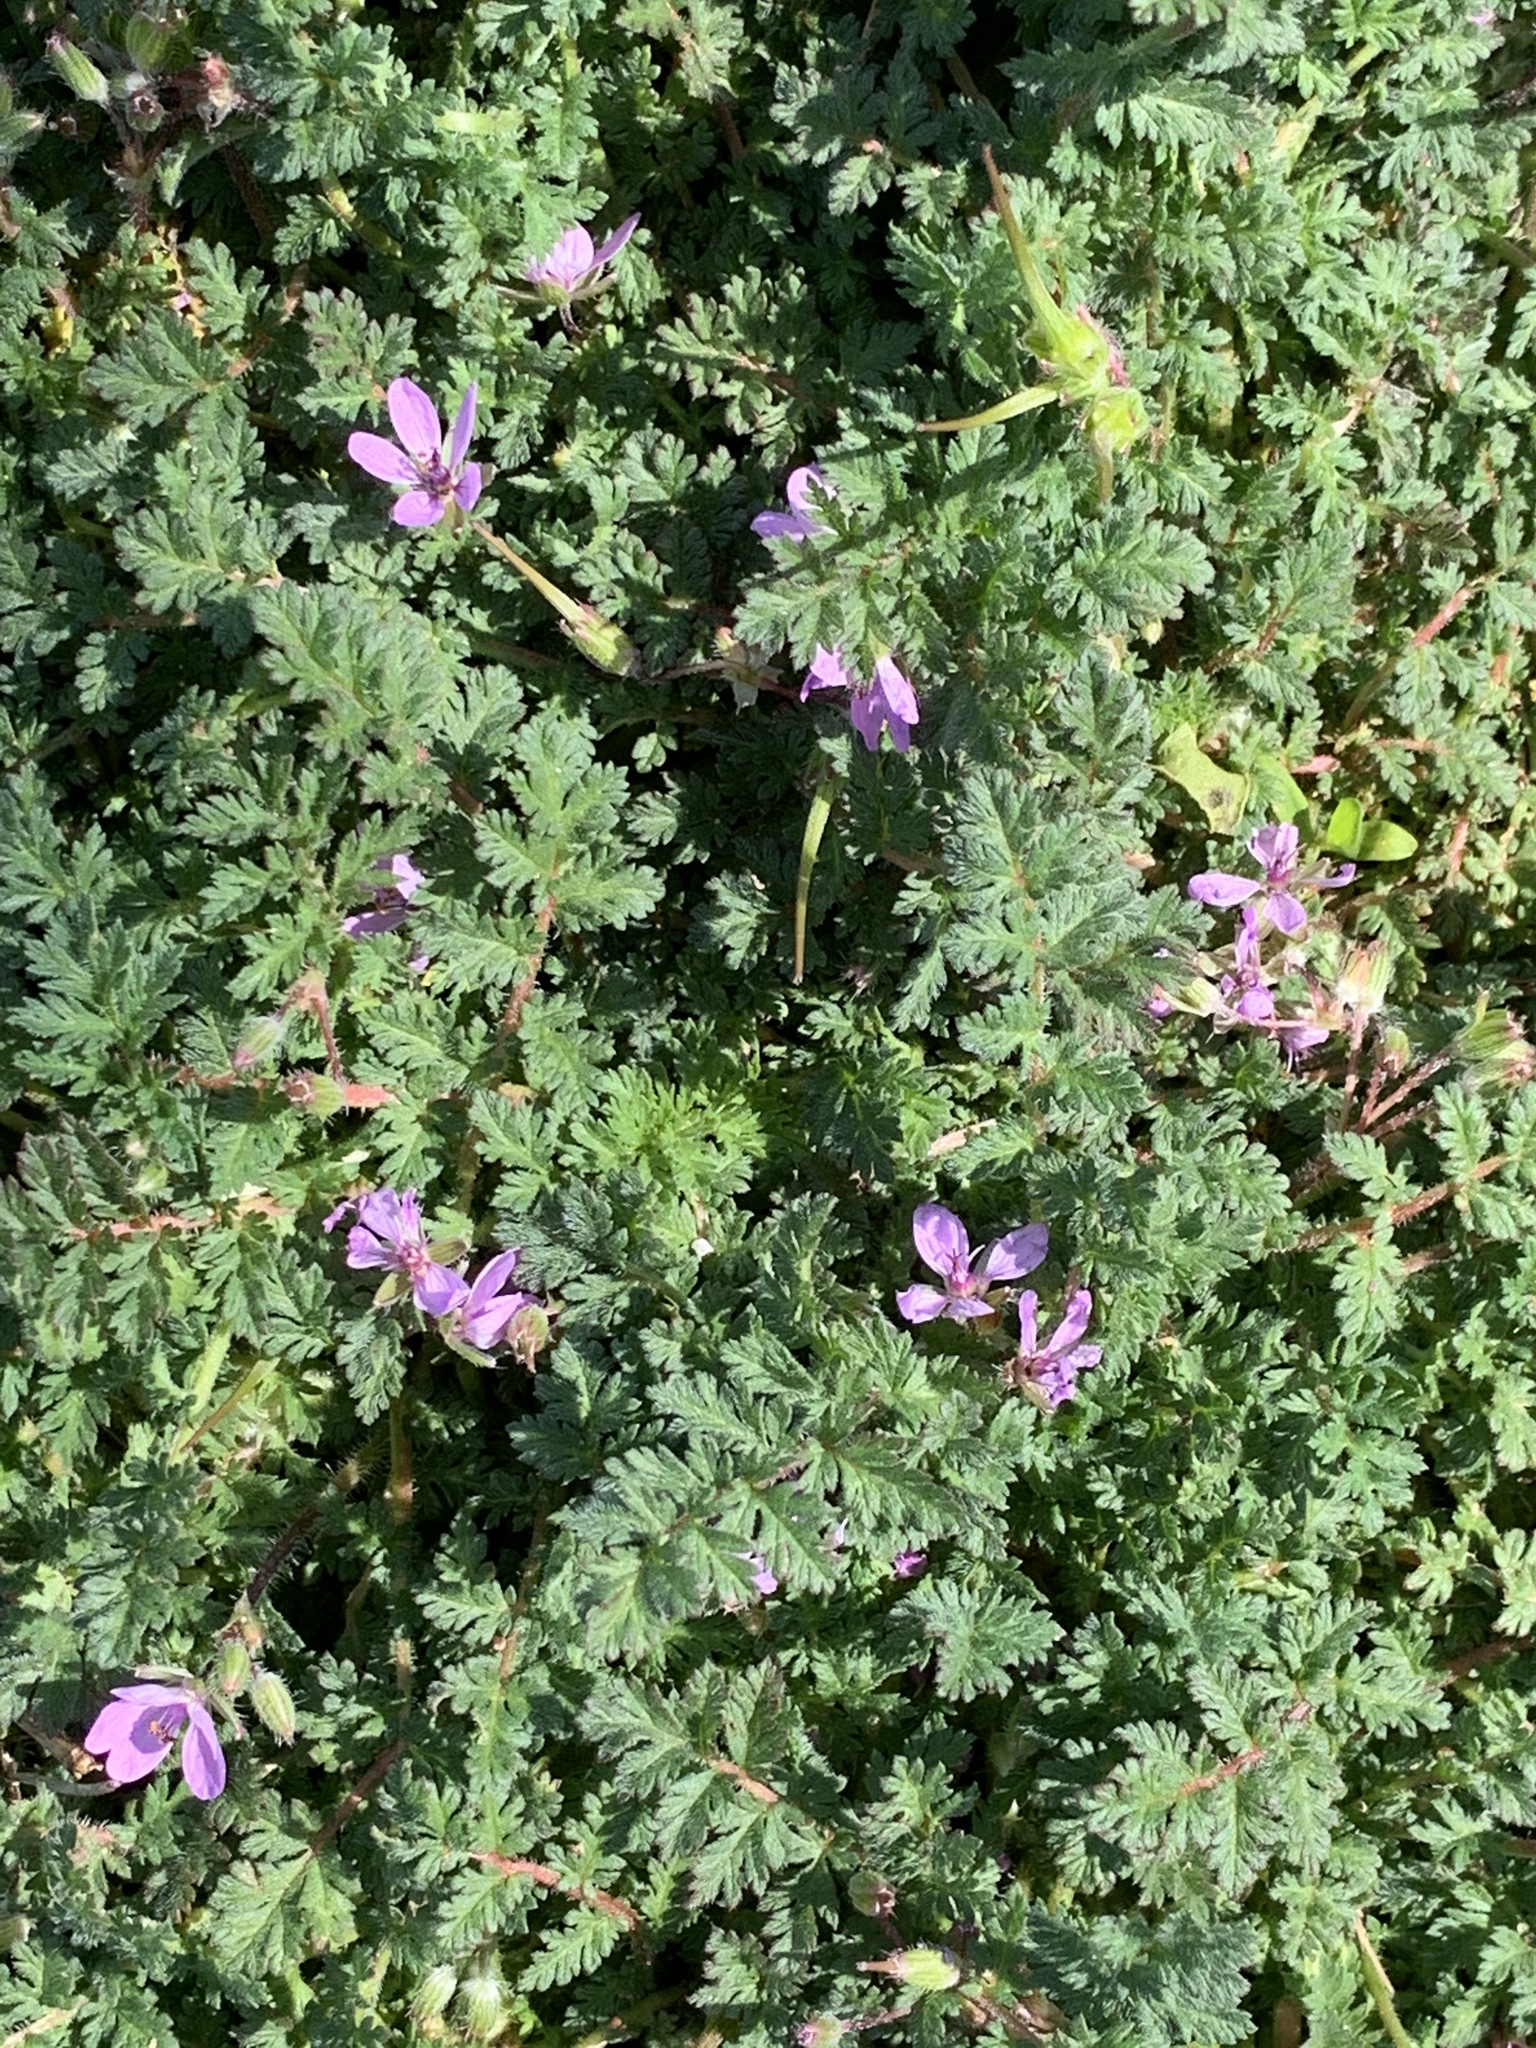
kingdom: Plantae
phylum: Tracheophyta
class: Magnoliopsida
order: Geraniales
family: Geraniaceae
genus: Erodium
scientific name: Erodium cicutarium
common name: Common stork's-bill
